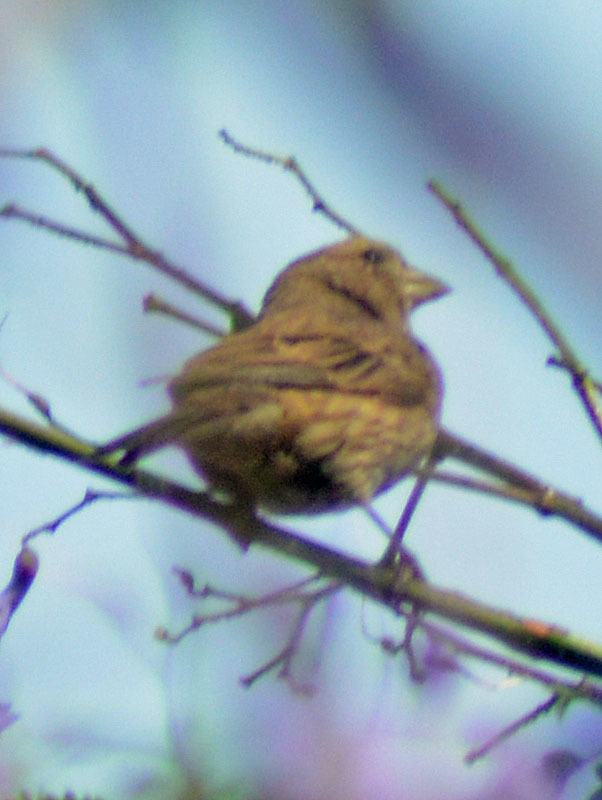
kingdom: Animalia
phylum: Chordata
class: Aves
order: Passeriformes
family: Fringillidae
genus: Haemorhous
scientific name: Haemorhous mexicanus
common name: House finch
